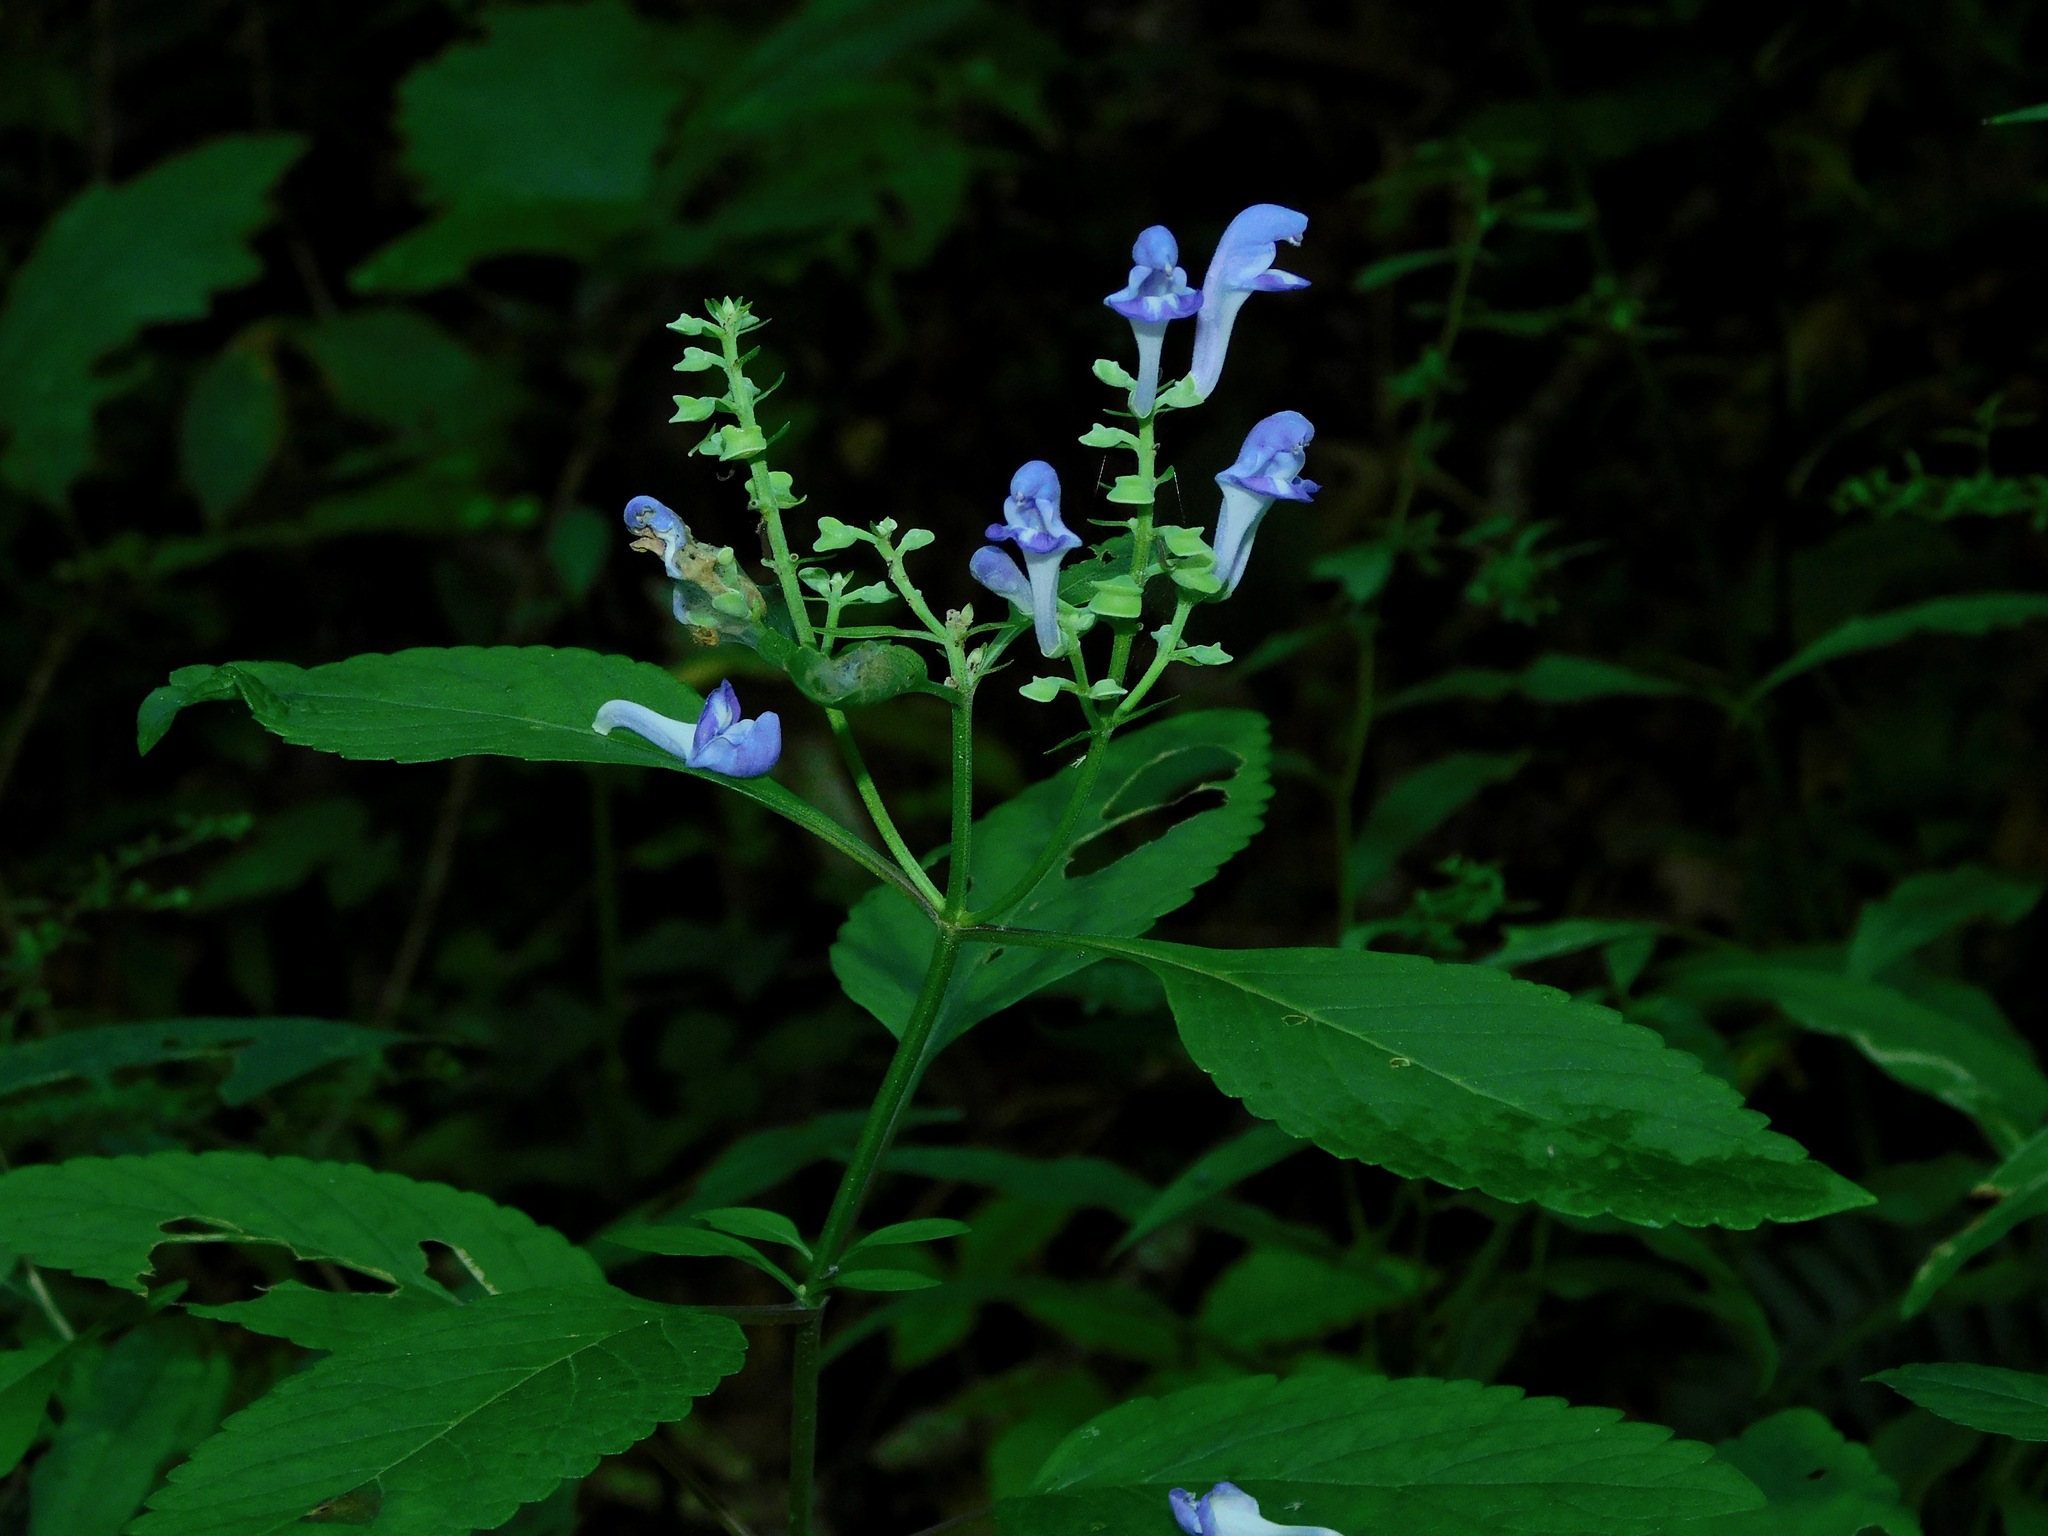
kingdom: Plantae
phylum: Tracheophyta
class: Magnoliopsida
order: Lamiales
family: Lamiaceae
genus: Scutellaria
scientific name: Scutellaria incana
